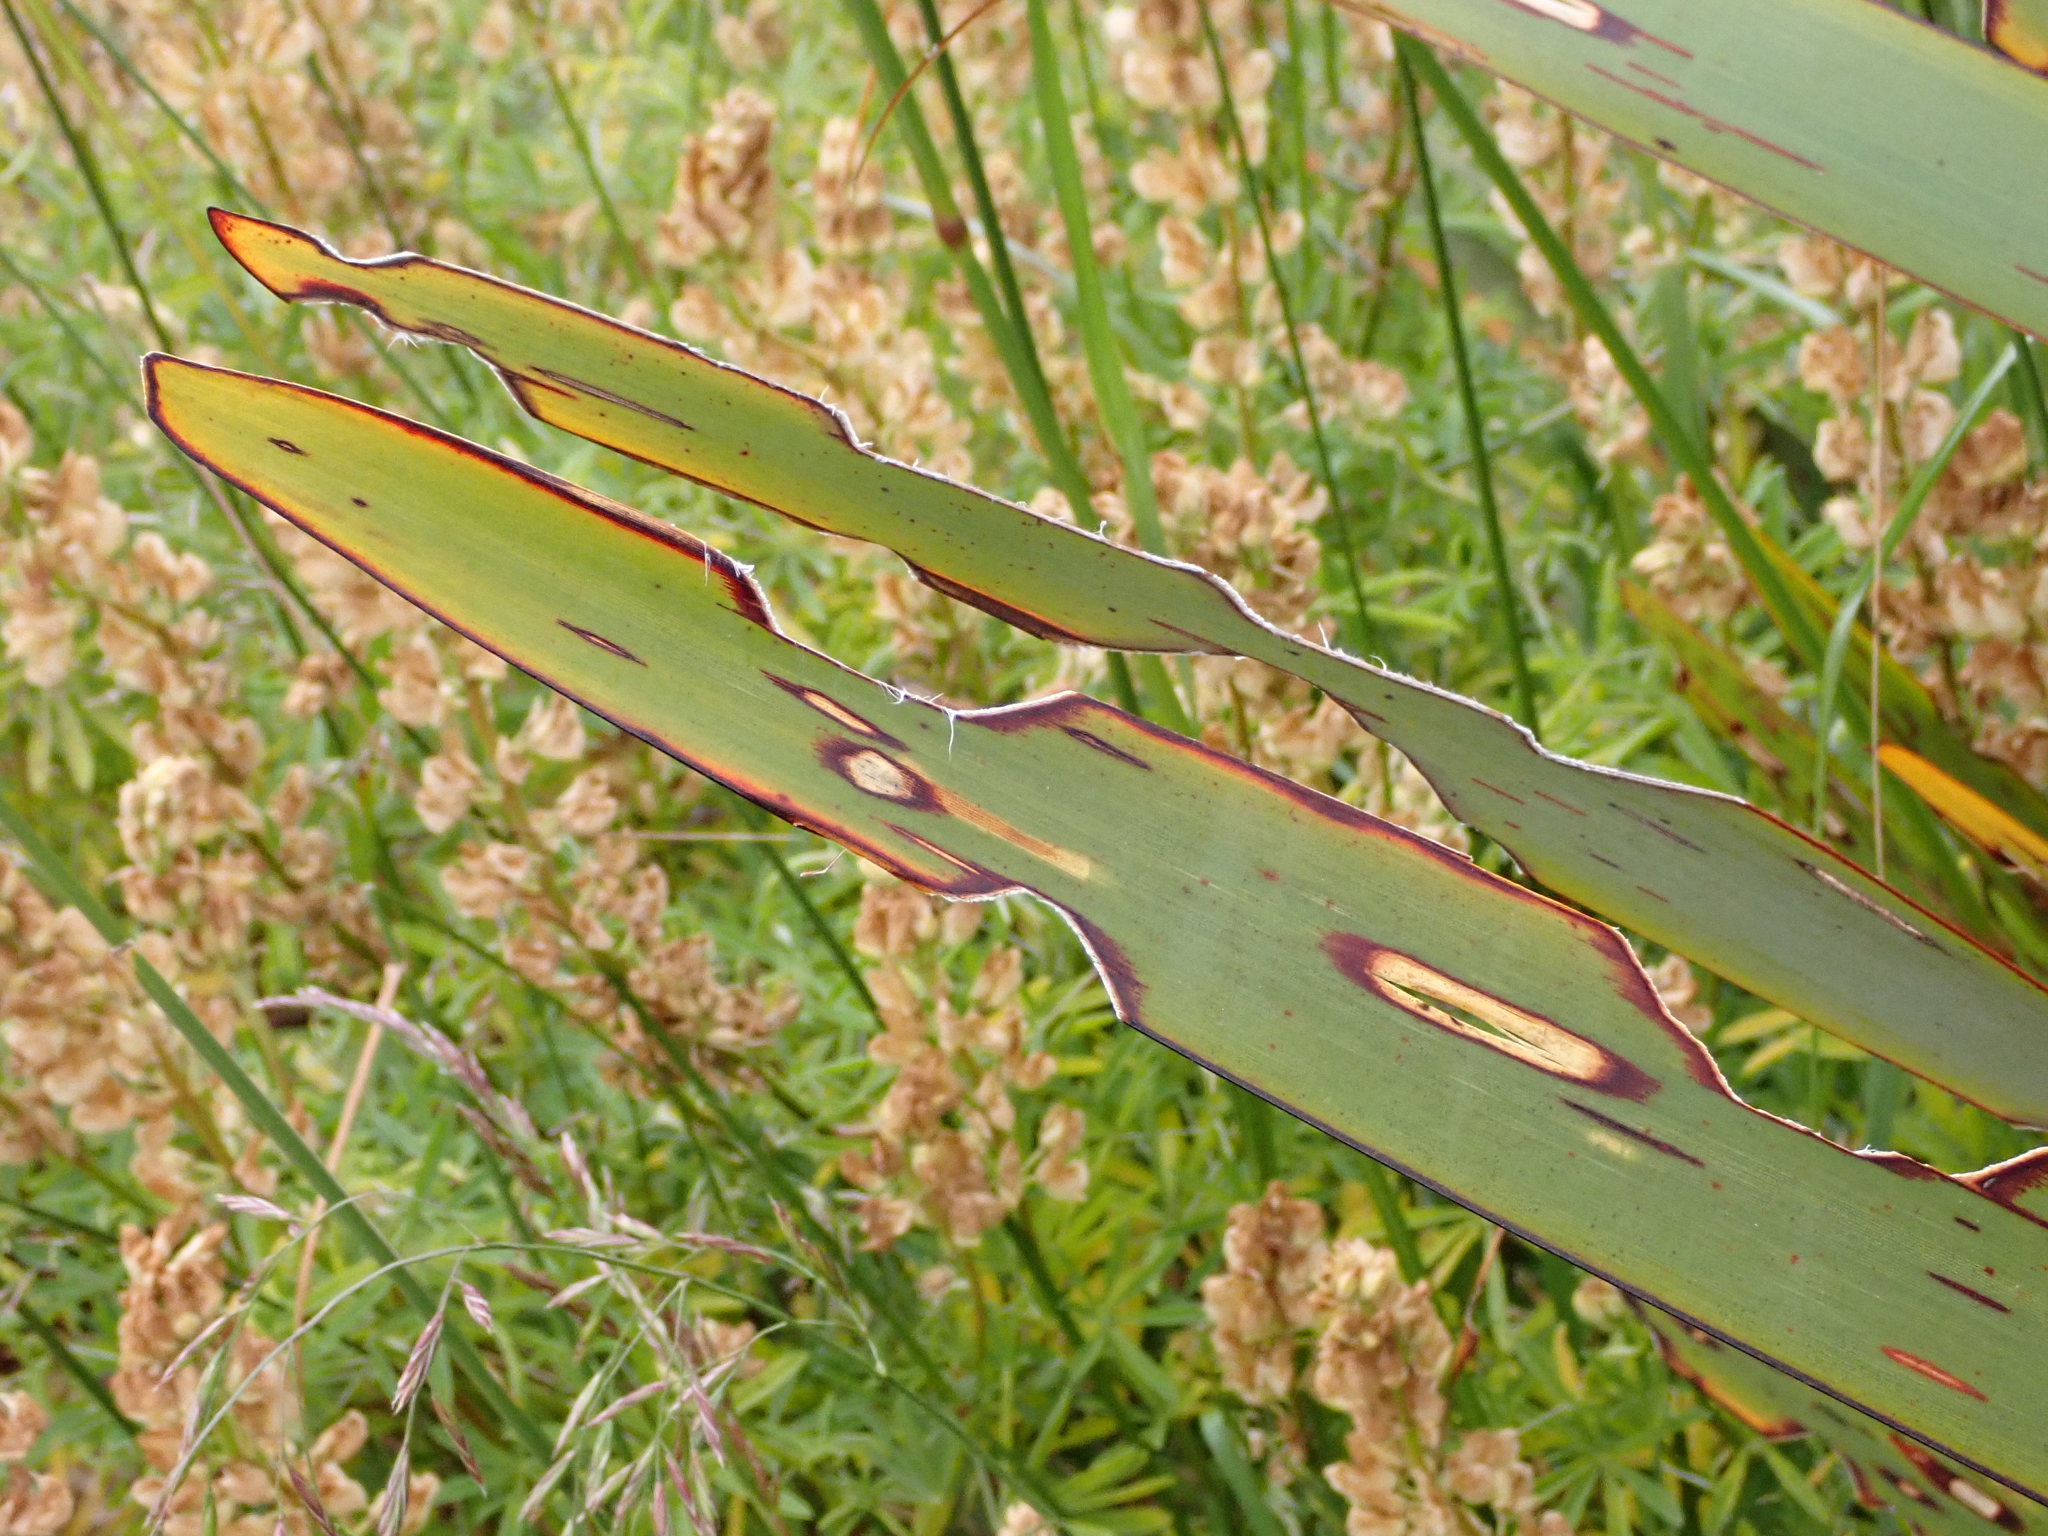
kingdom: Animalia
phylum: Arthropoda
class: Insecta
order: Lepidoptera
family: Noctuidae
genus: Ichneutica
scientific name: Ichneutica
